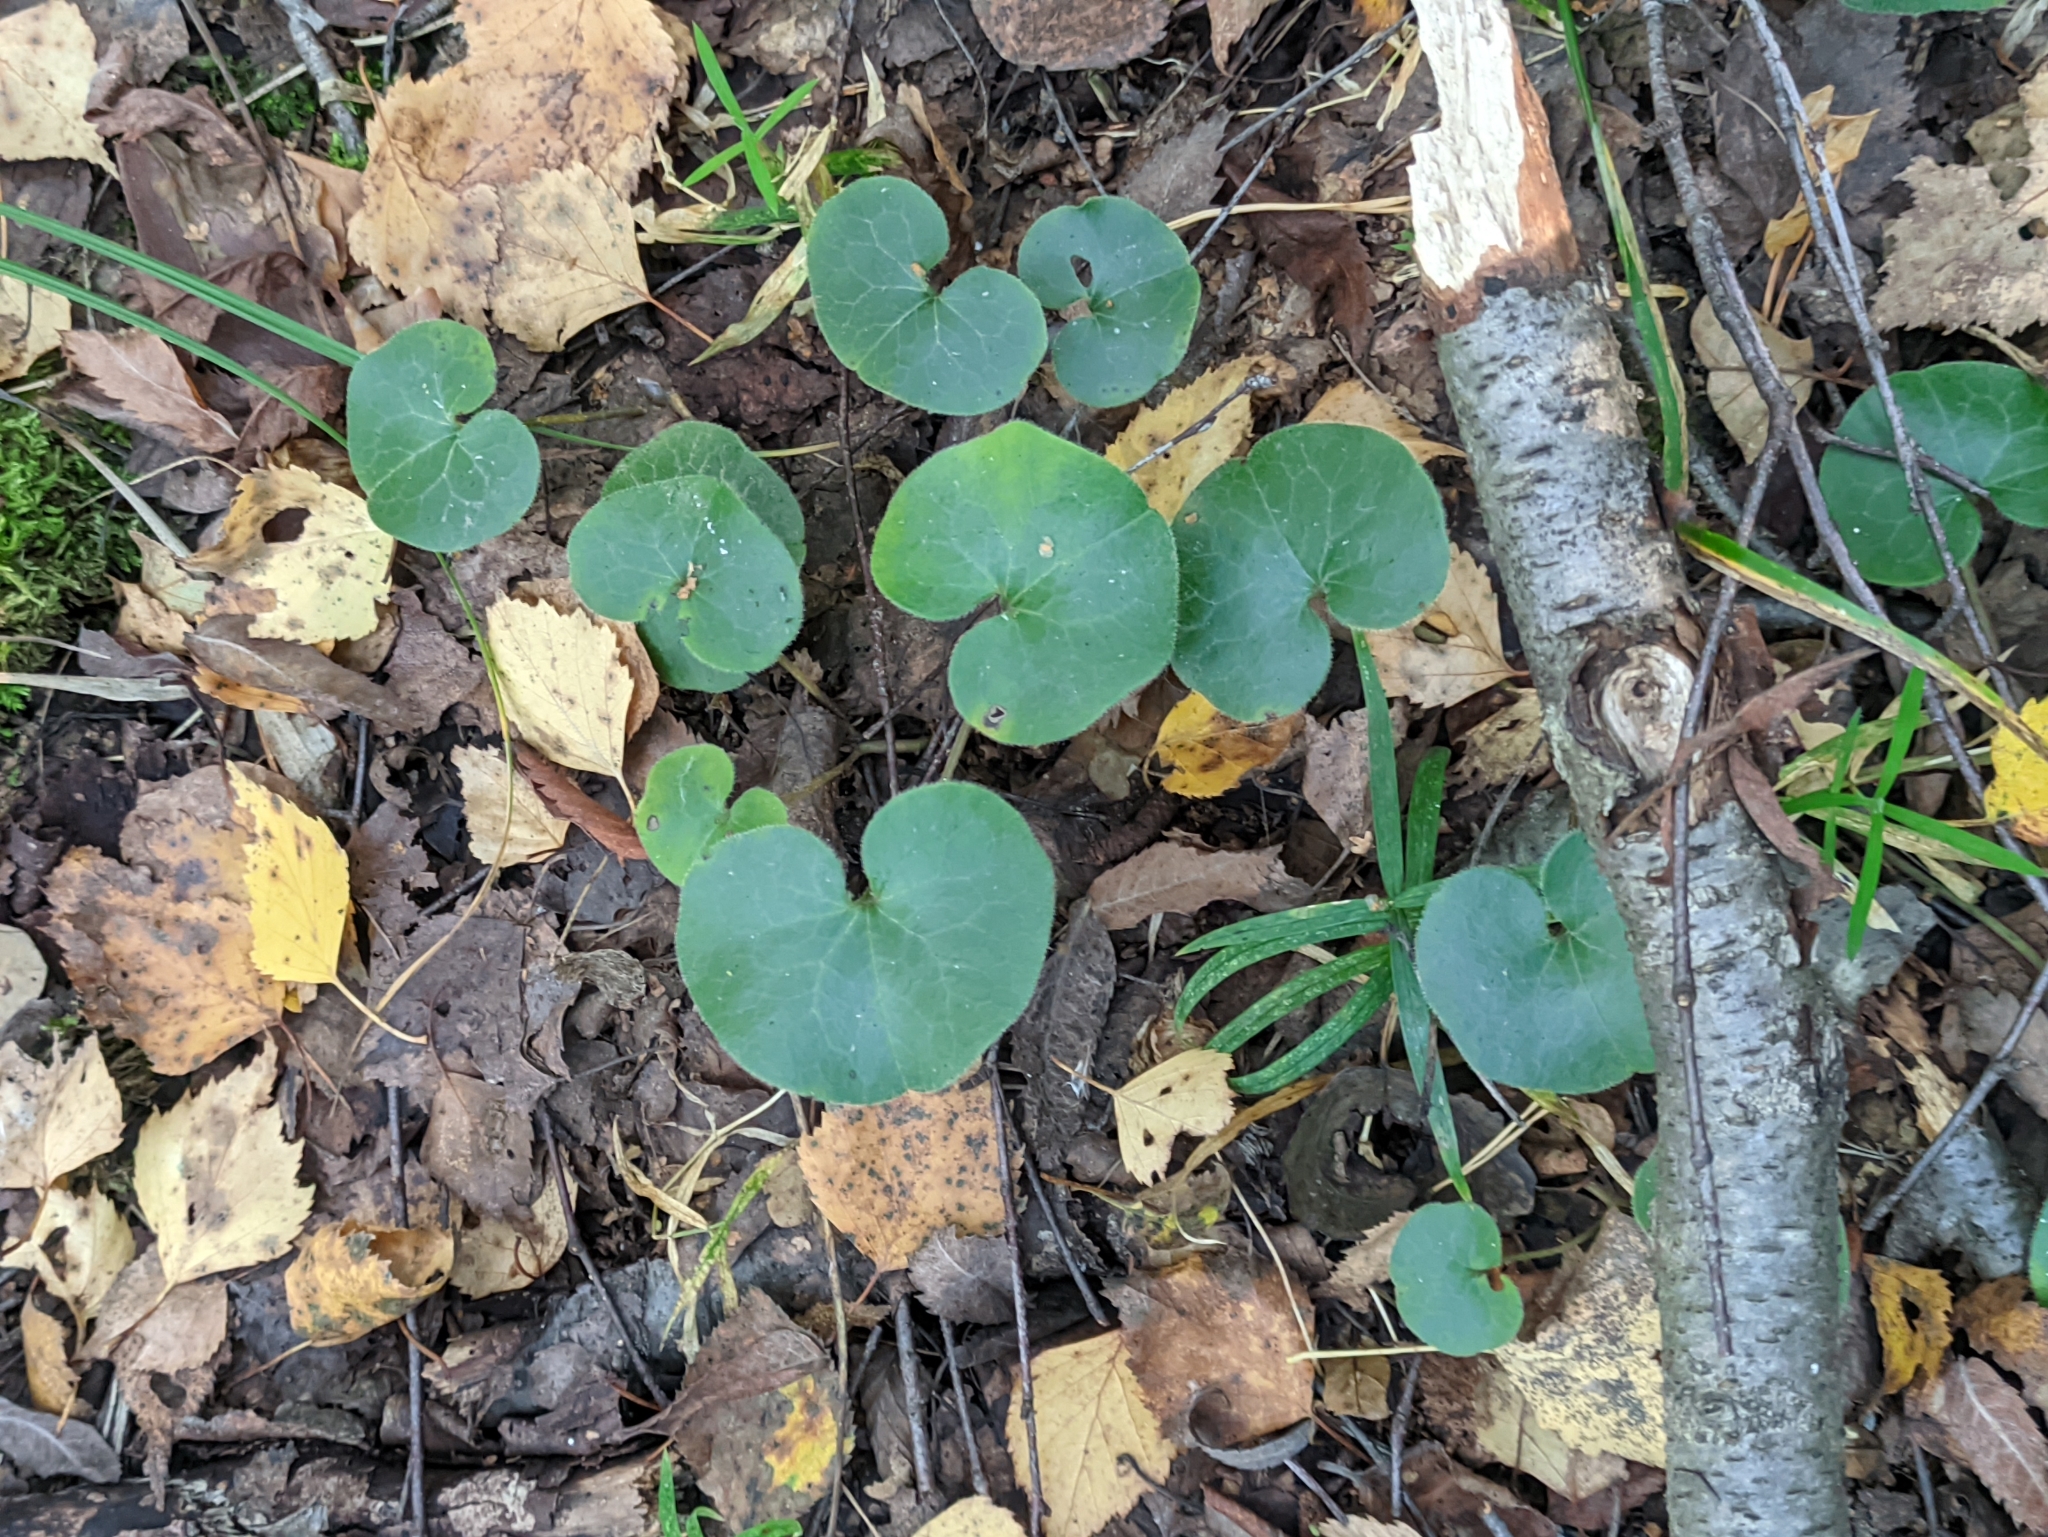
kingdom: Plantae
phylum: Tracheophyta
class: Magnoliopsida
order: Piperales
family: Aristolochiaceae
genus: Asarum
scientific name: Asarum europaeum
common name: Asarabacca
